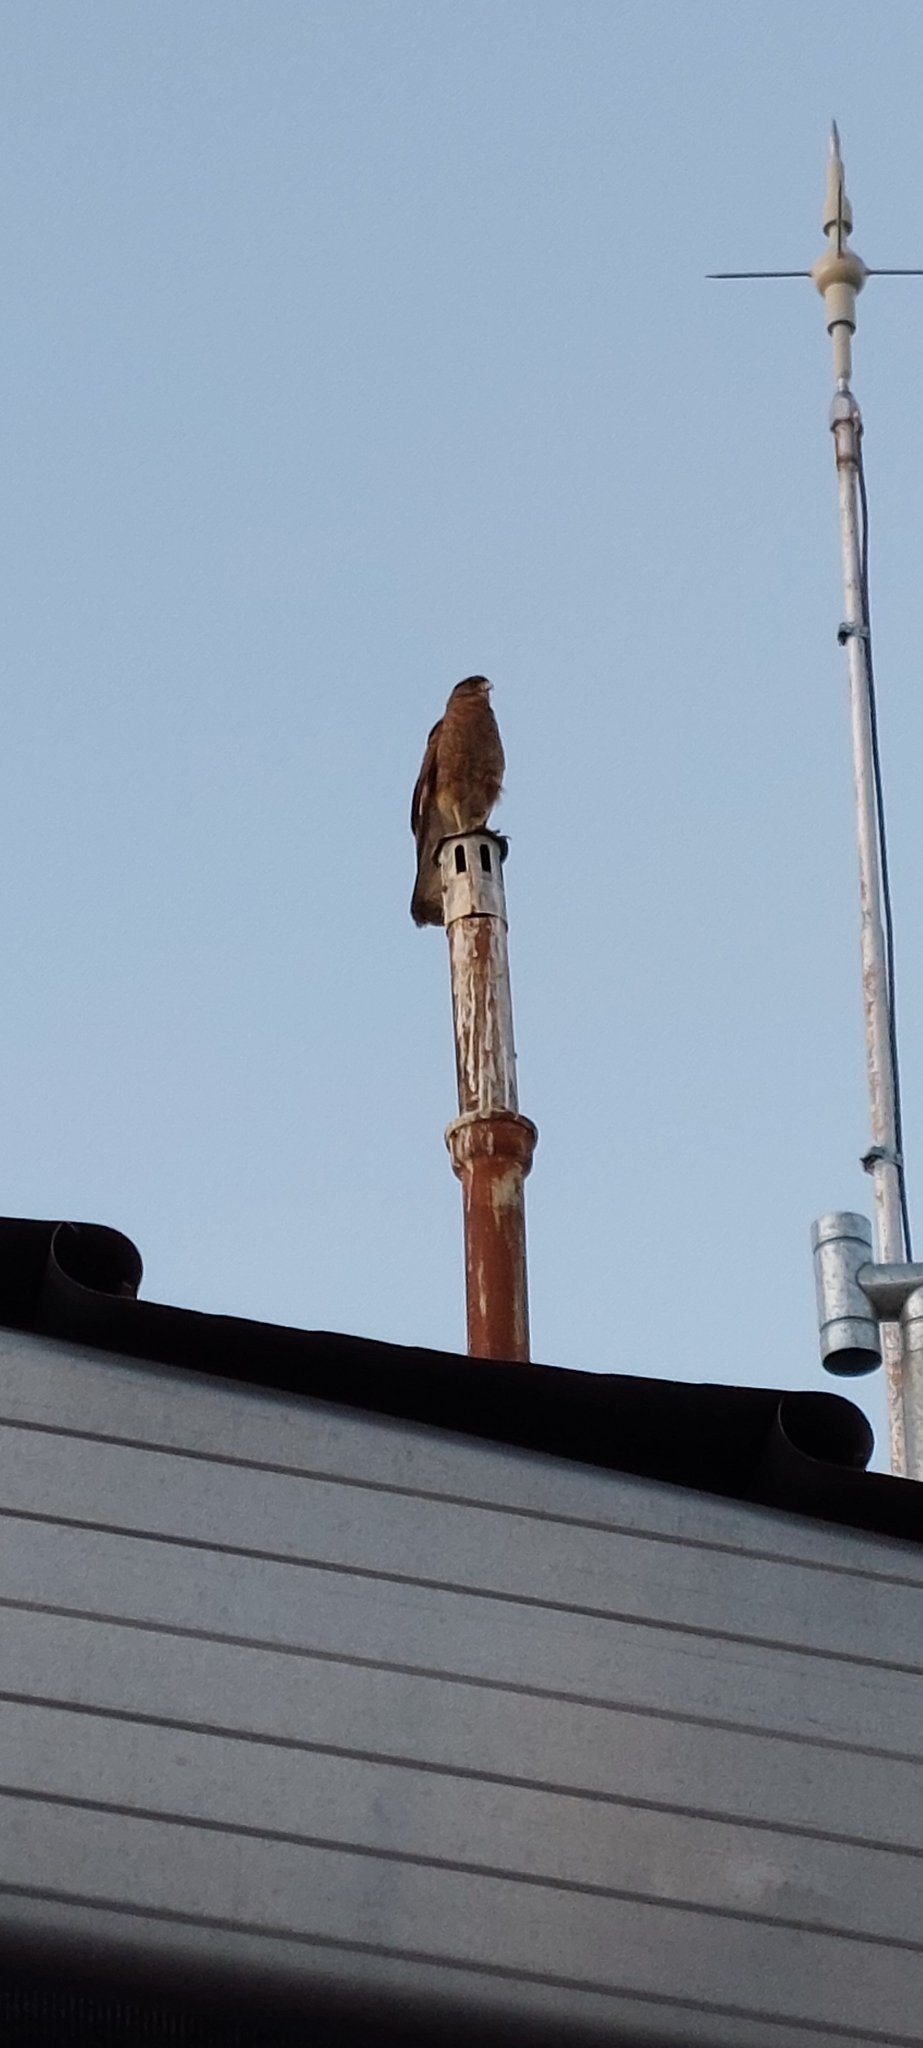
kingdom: Animalia
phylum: Chordata
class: Aves
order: Falconiformes
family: Falconidae
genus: Daptrius
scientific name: Daptrius
